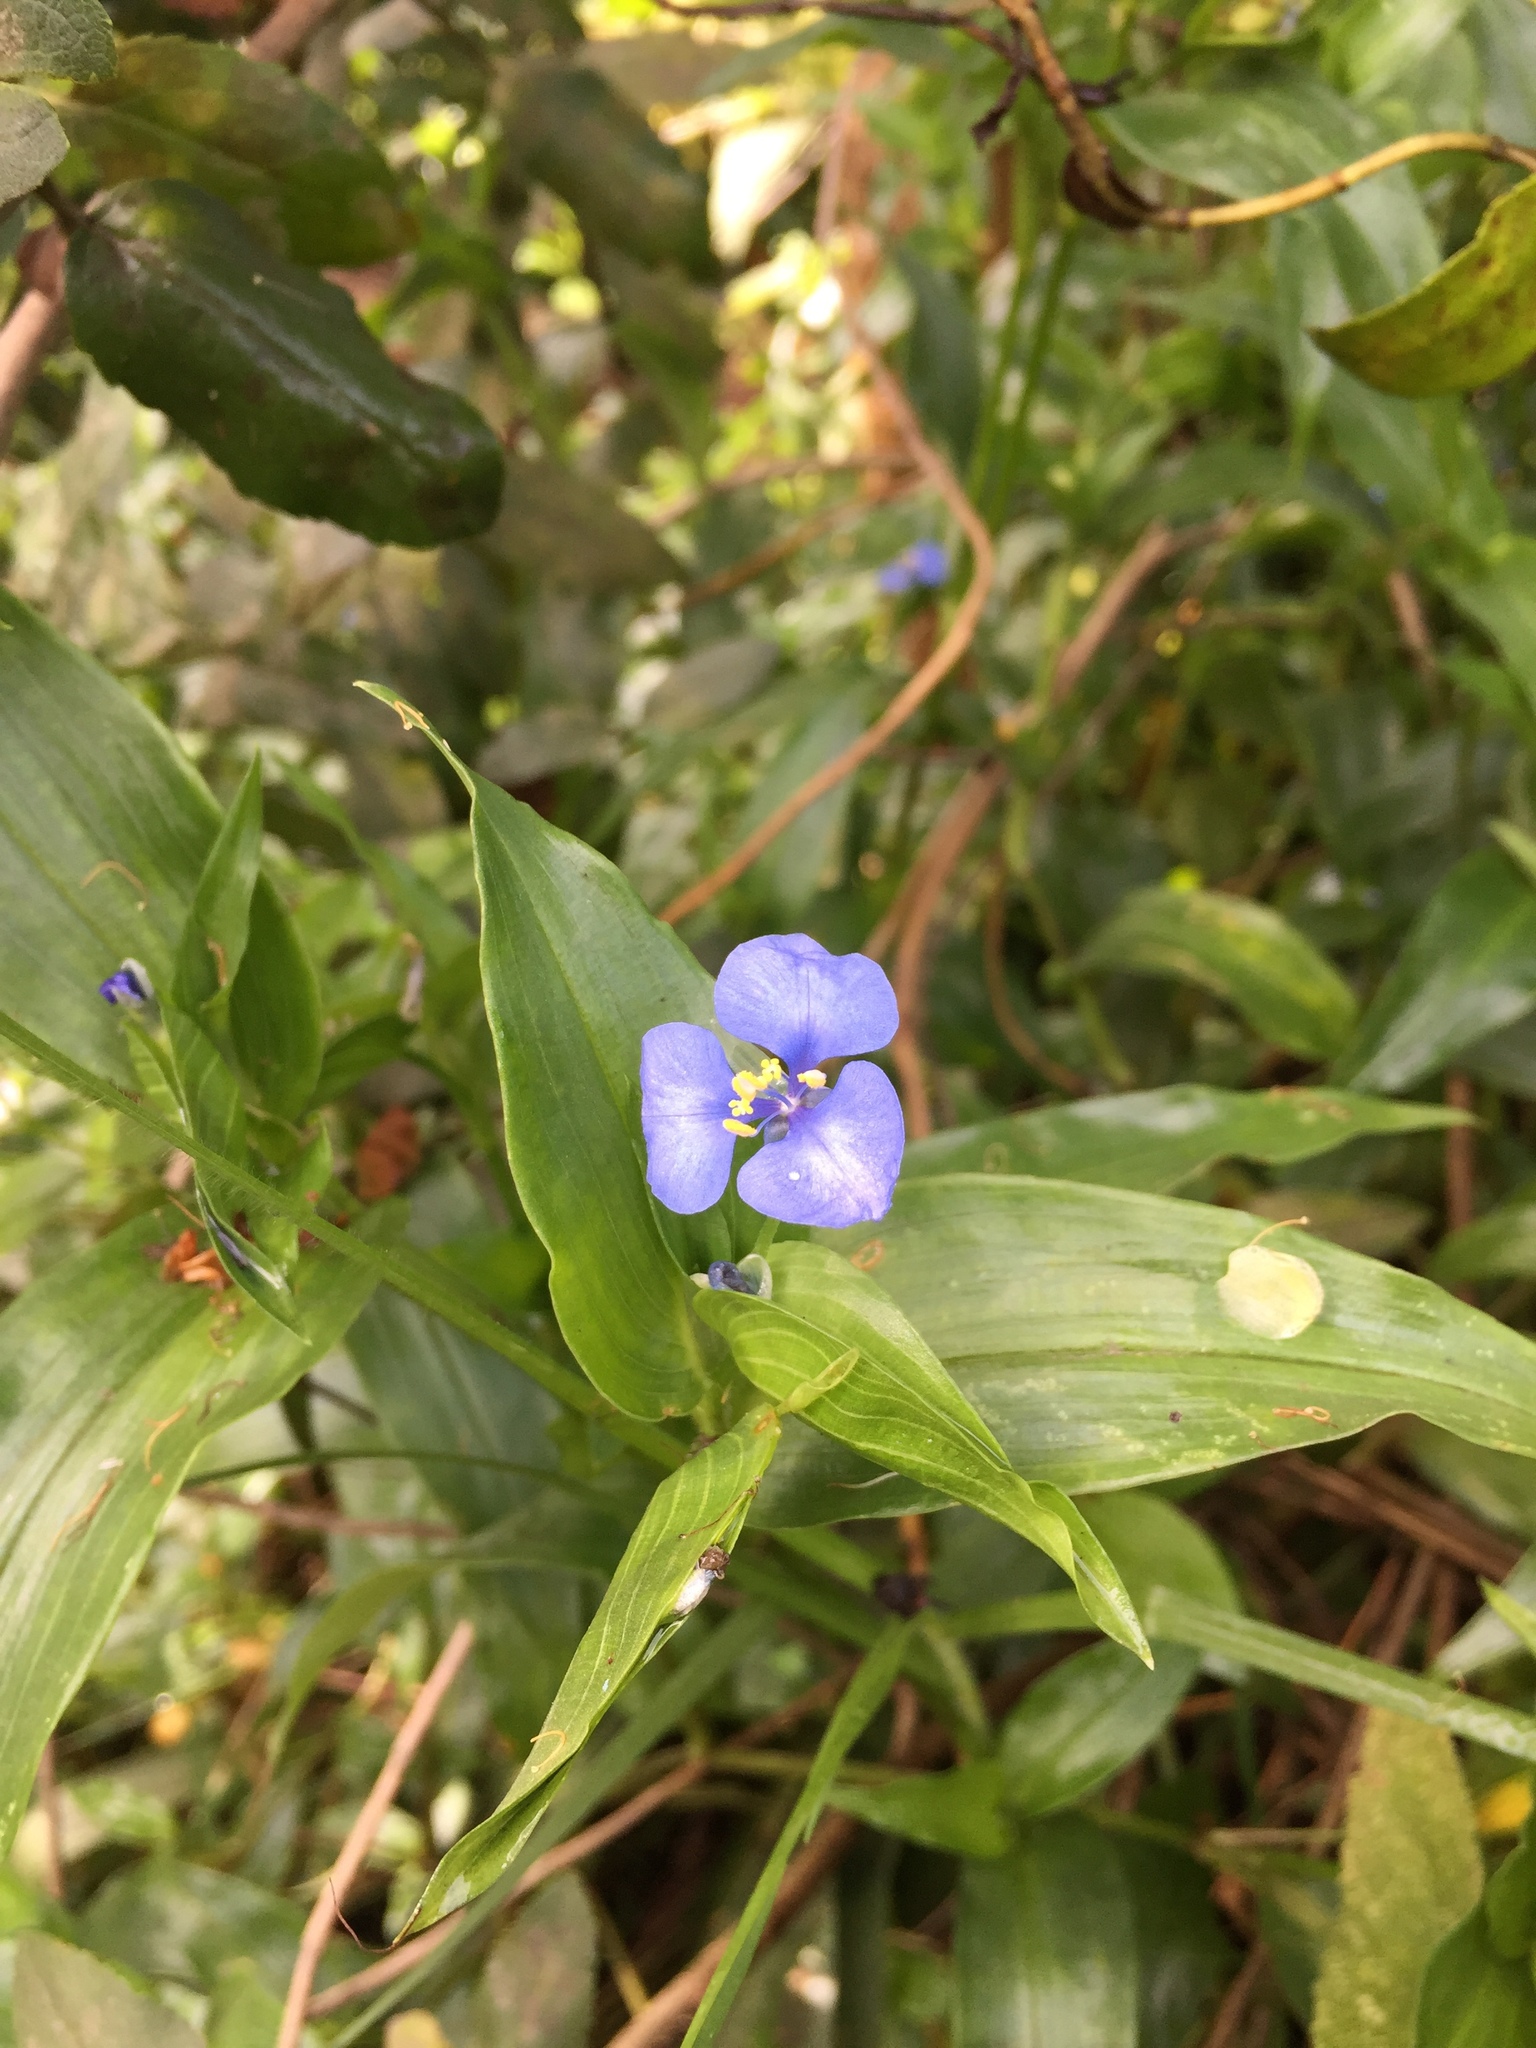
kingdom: Plantae
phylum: Tracheophyta
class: Liliopsida
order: Commelinales
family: Commelinaceae
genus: Commelina
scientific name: Commelina quitensis
